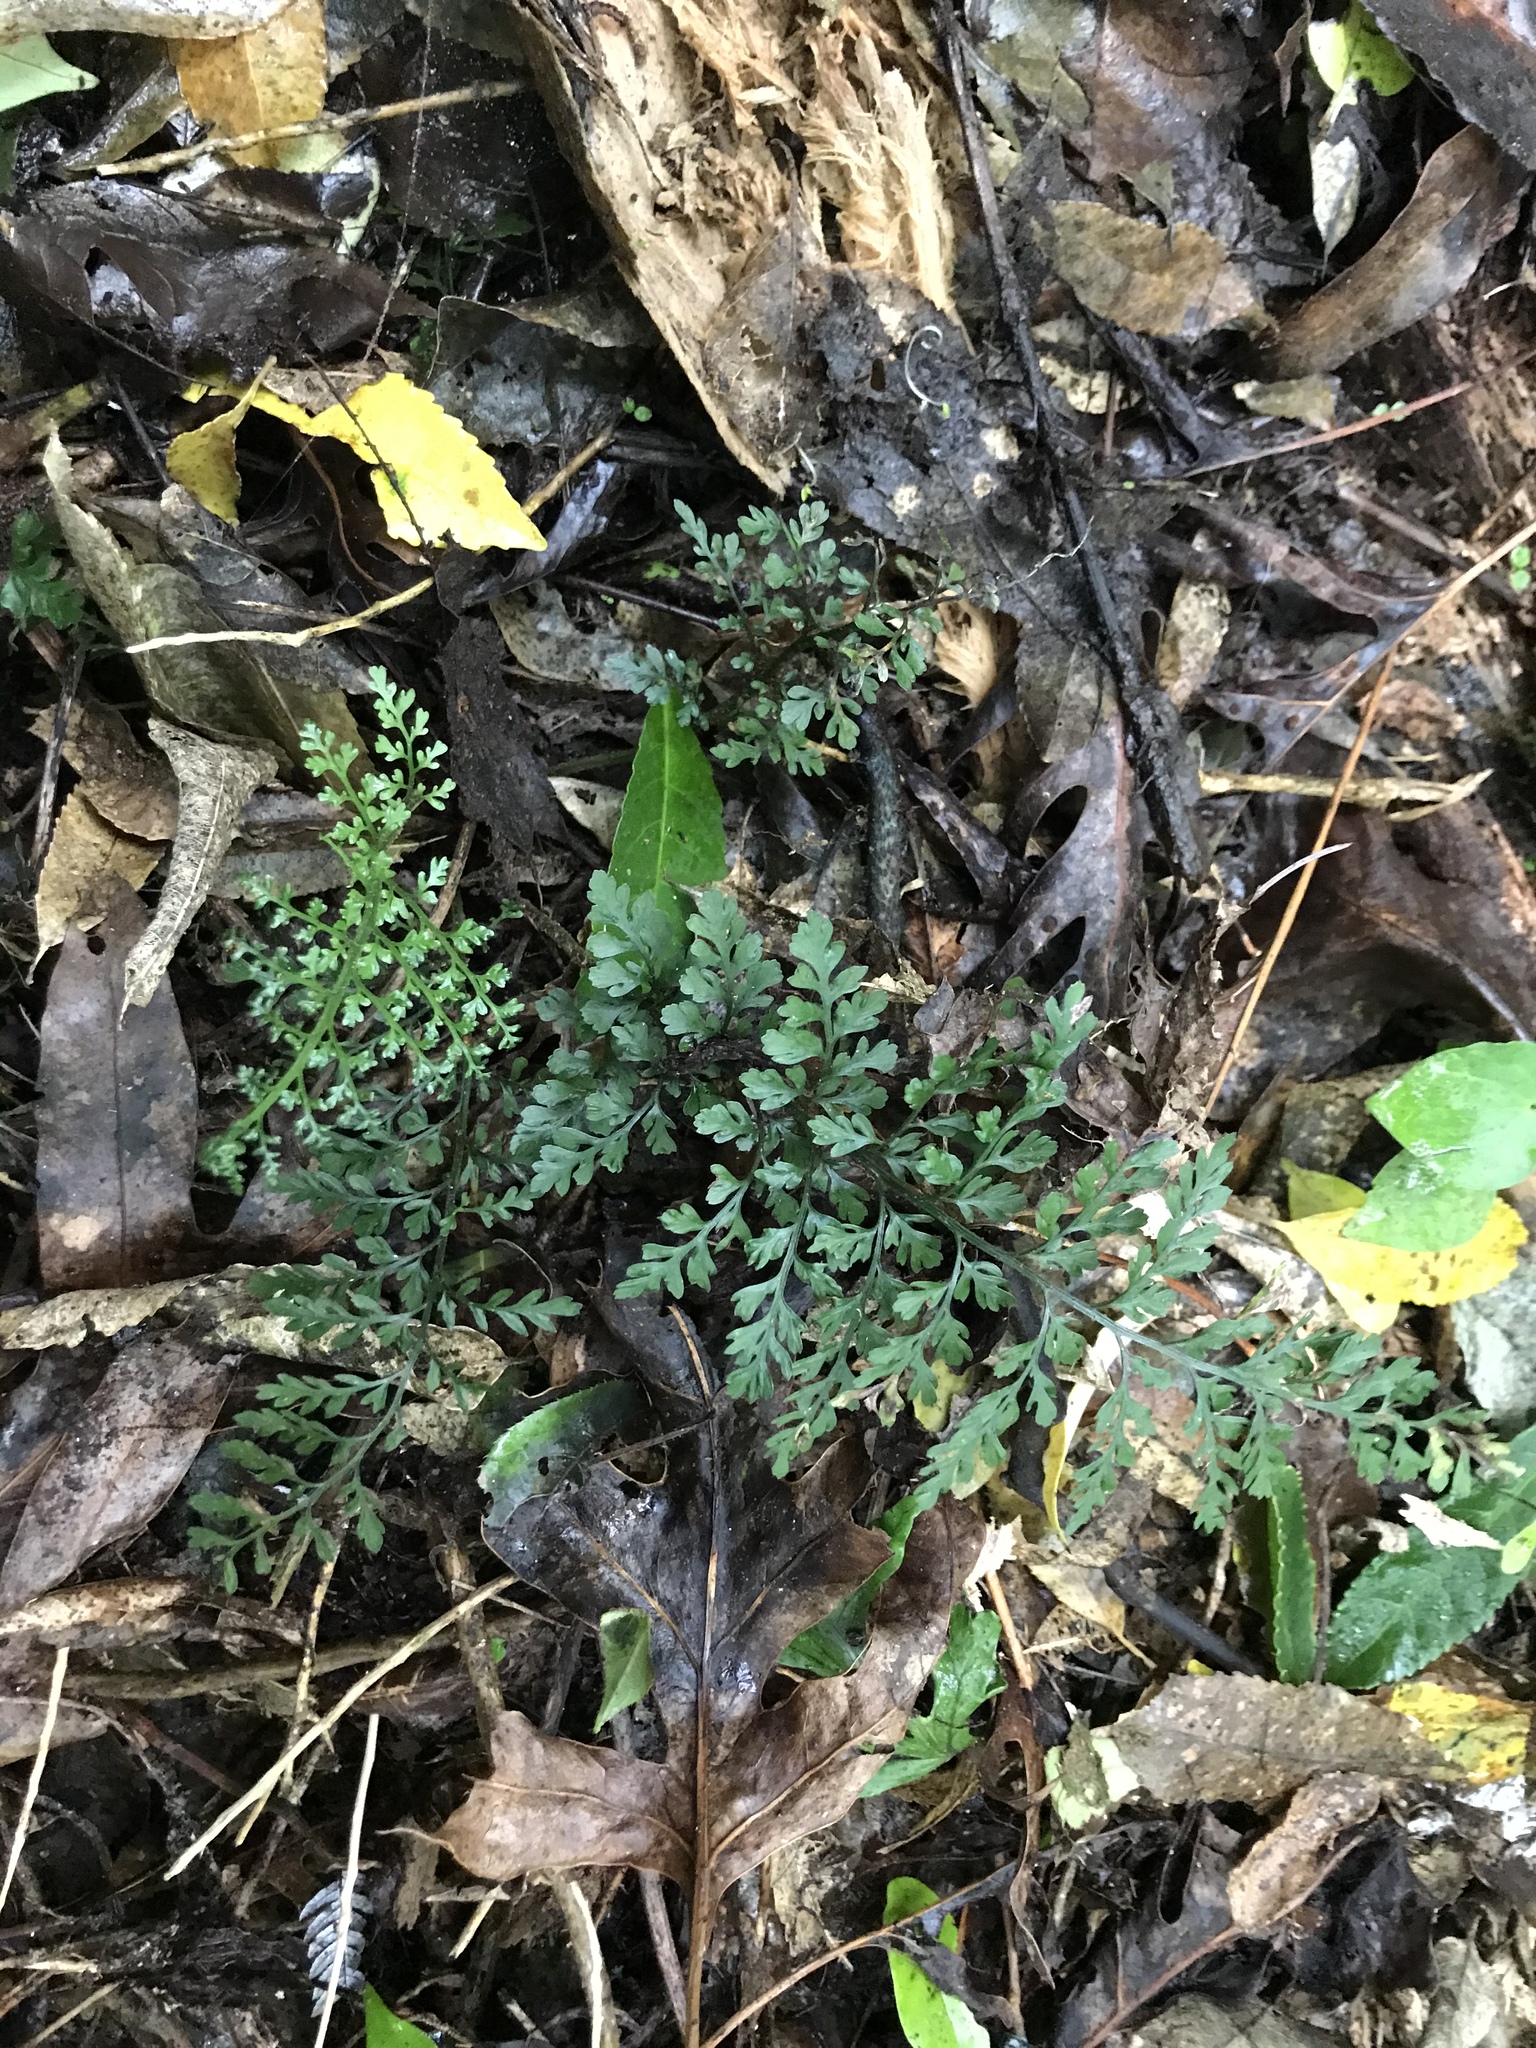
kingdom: Plantae
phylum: Tracheophyta
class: Polypodiopsida
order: Polypodiales
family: Aspleniaceae
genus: Asplenium
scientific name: Asplenium hookerianum
